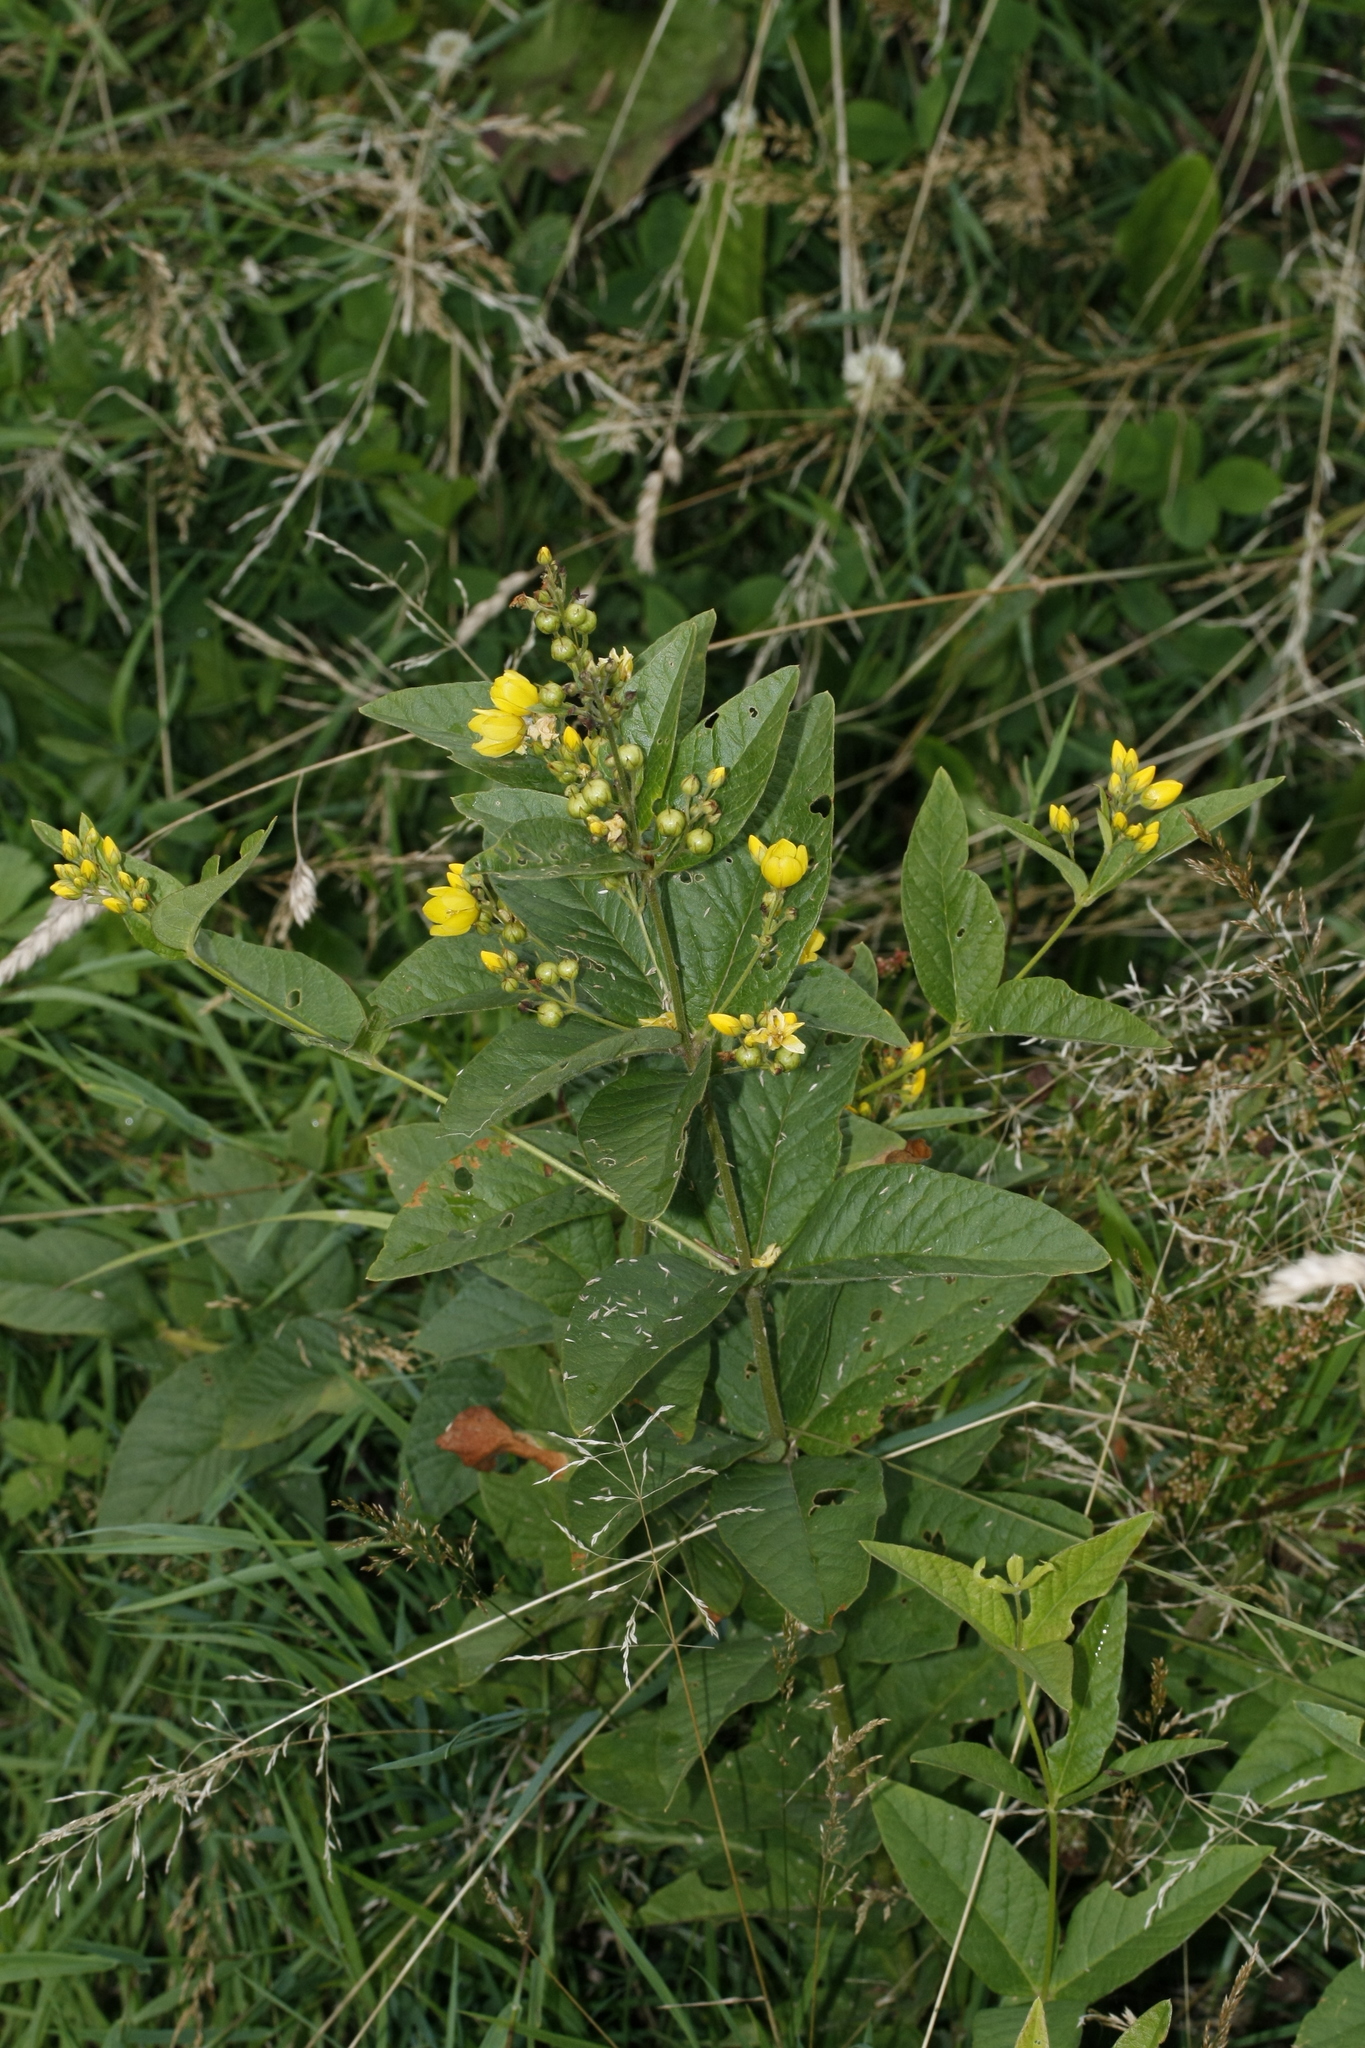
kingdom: Plantae
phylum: Tracheophyta
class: Magnoliopsida
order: Ericales
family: Primulaceae
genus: Lysimachia
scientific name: Lysimachia vulgaris
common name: Yellow loosestrife
